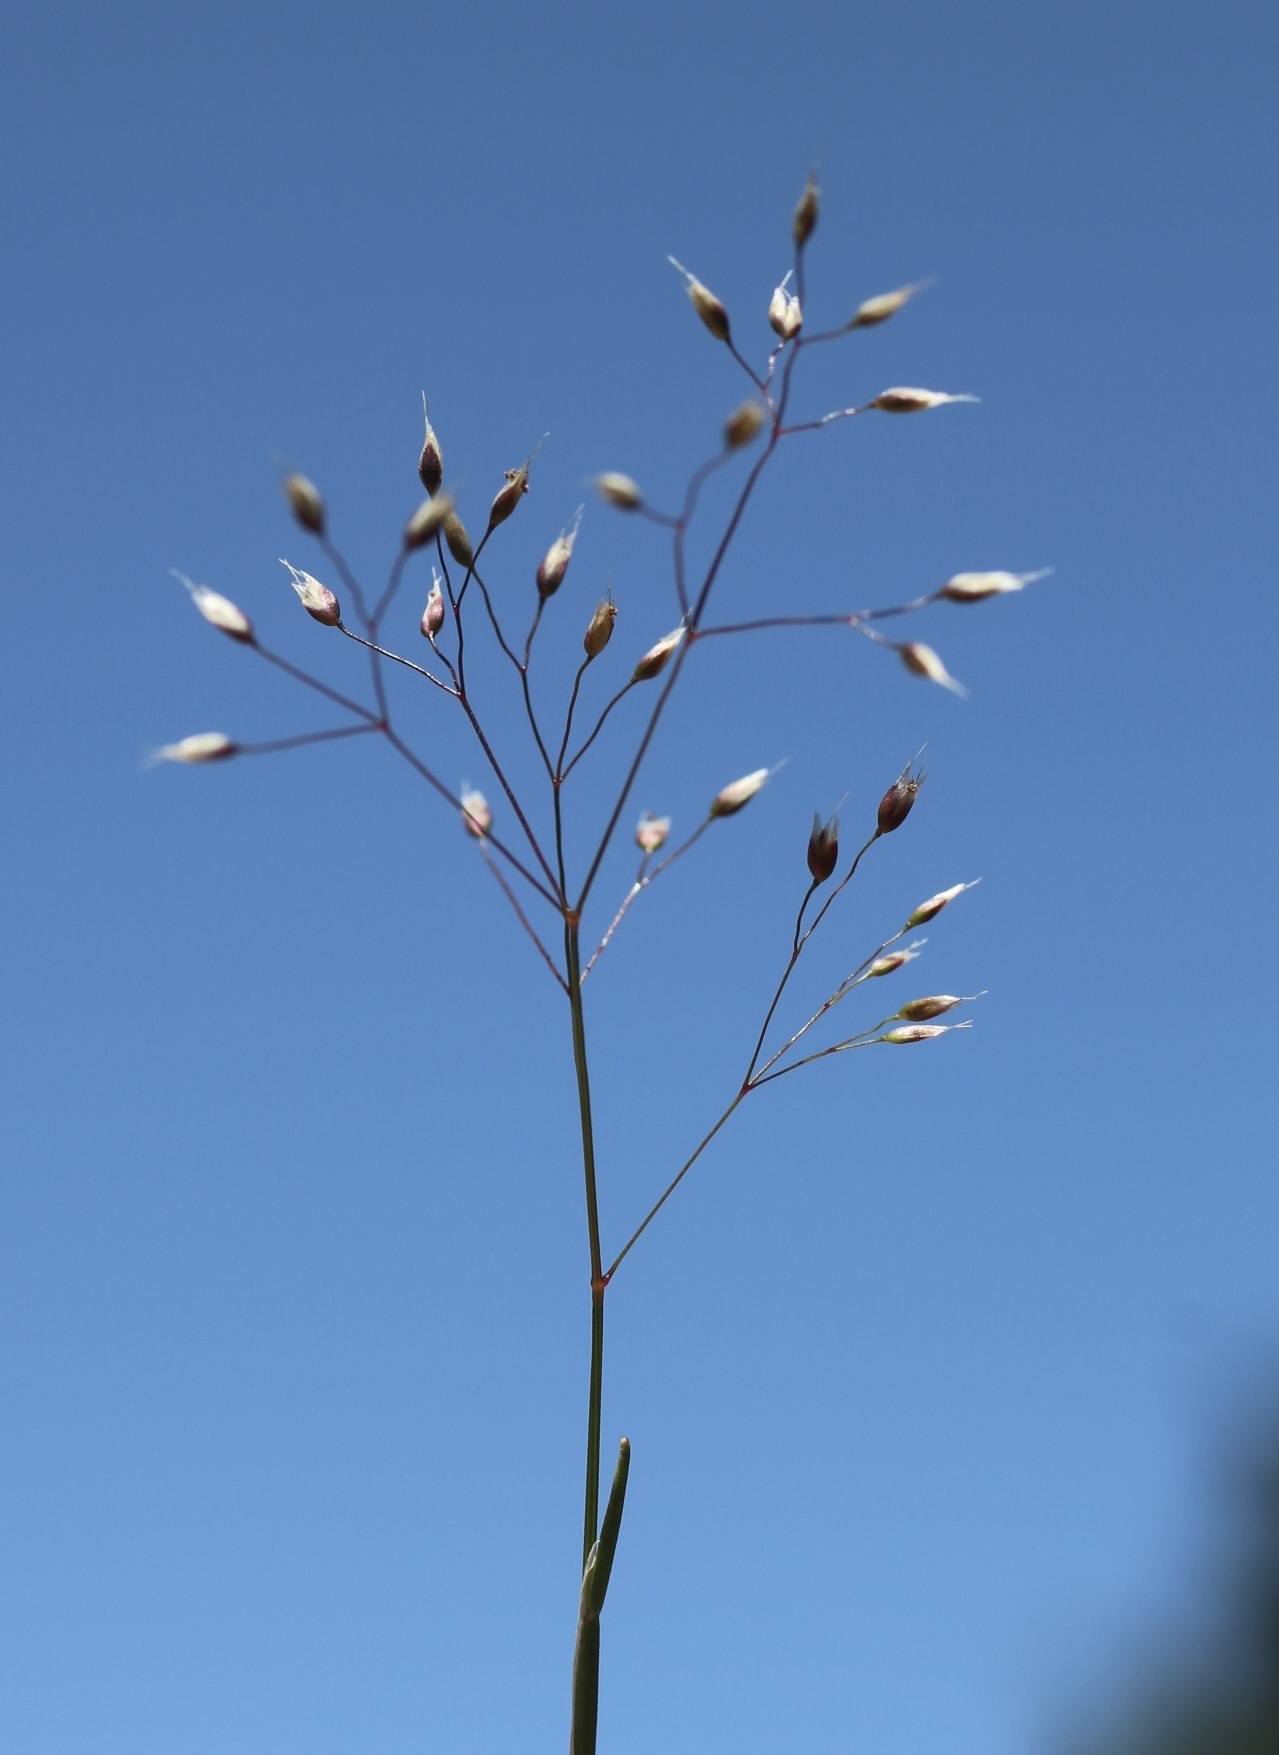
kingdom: Plantae
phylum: Tracheophyta
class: Liliopsida
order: Poales
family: Poaceae
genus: Aira
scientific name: Aira caryophyllea
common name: Silver hairgrass
